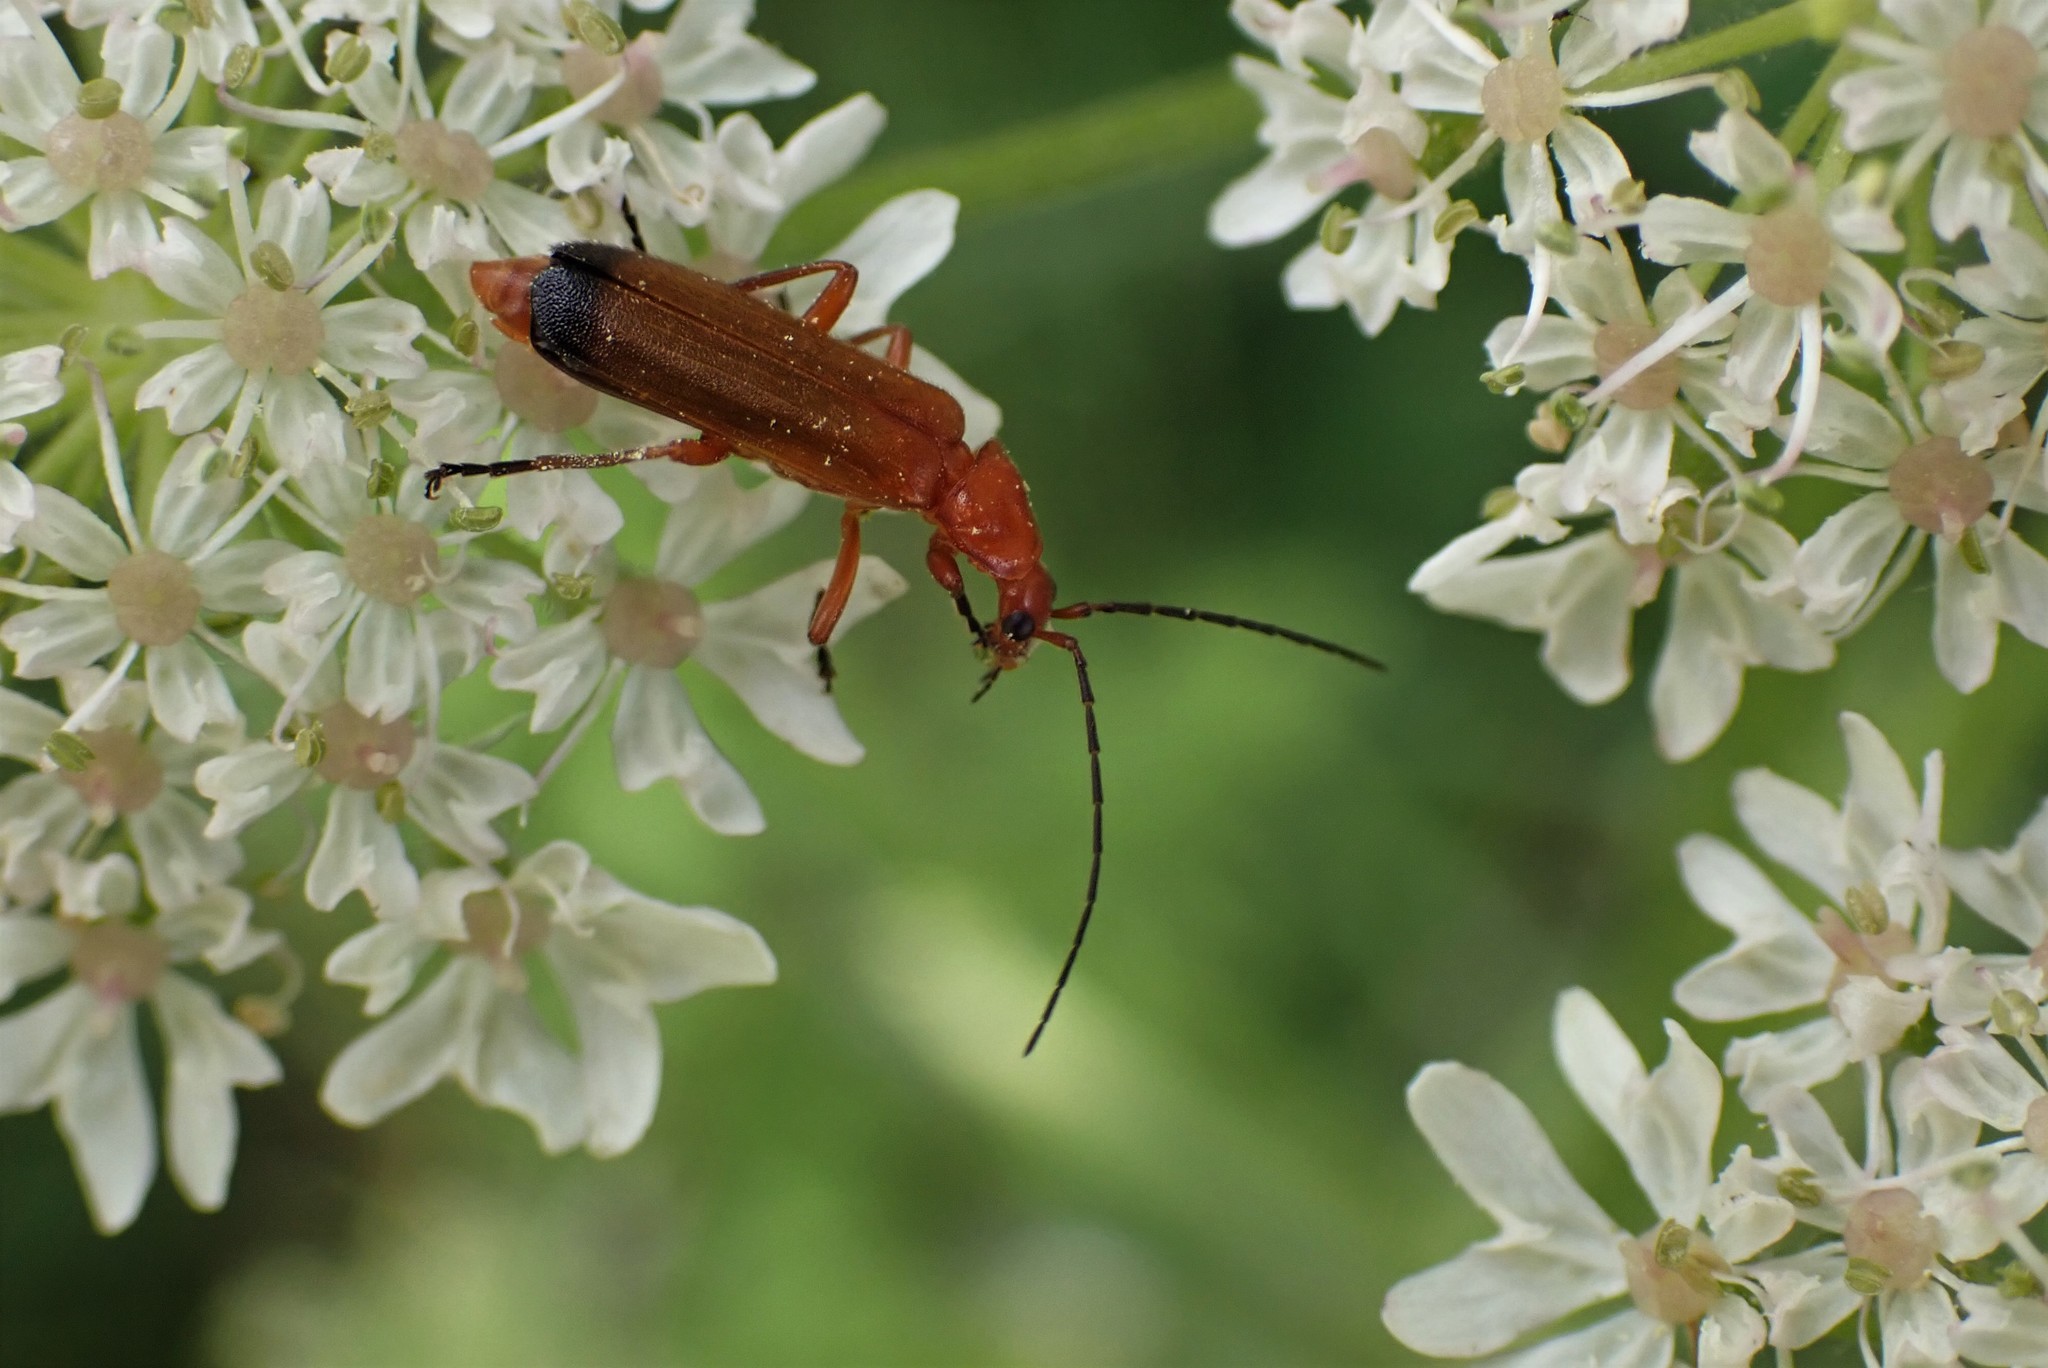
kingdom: Animalia
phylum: Arthropoda
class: Insecta
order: Coleoptera
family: Cantharidae
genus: Rhagonycha
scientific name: Rhagonycha fulva
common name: Common red soldier beetle
